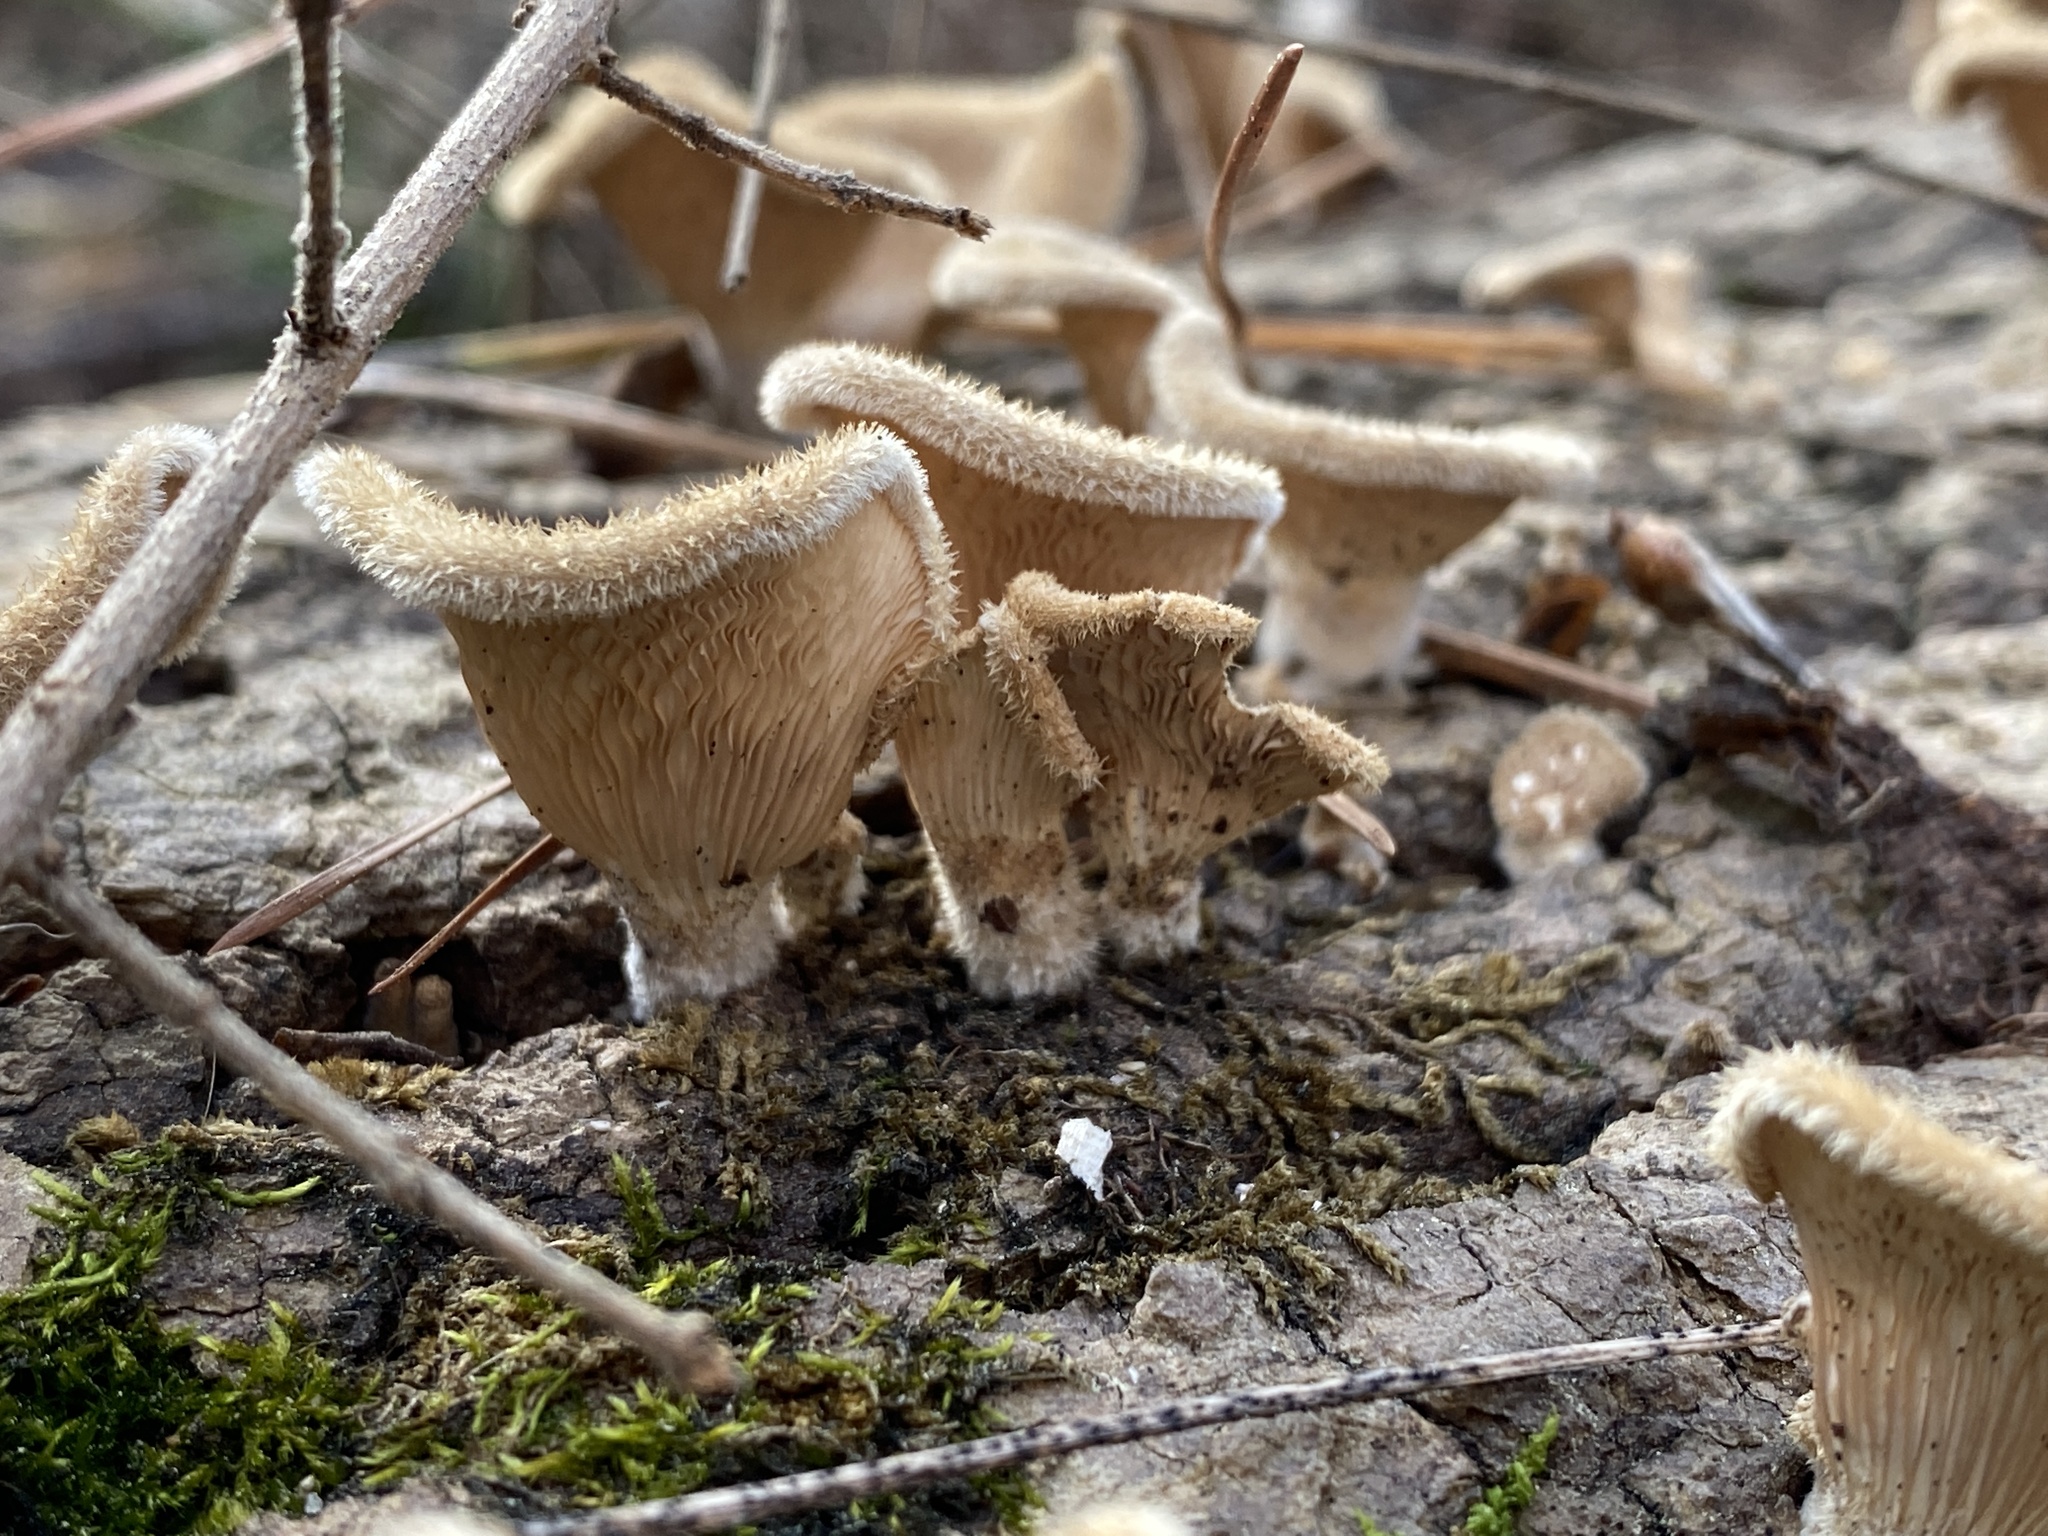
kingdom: Fungi
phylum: Basidiomycota
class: Agaricomycetes
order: Polyporales
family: Panaceae
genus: Panus
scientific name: Panus neostrigosus
